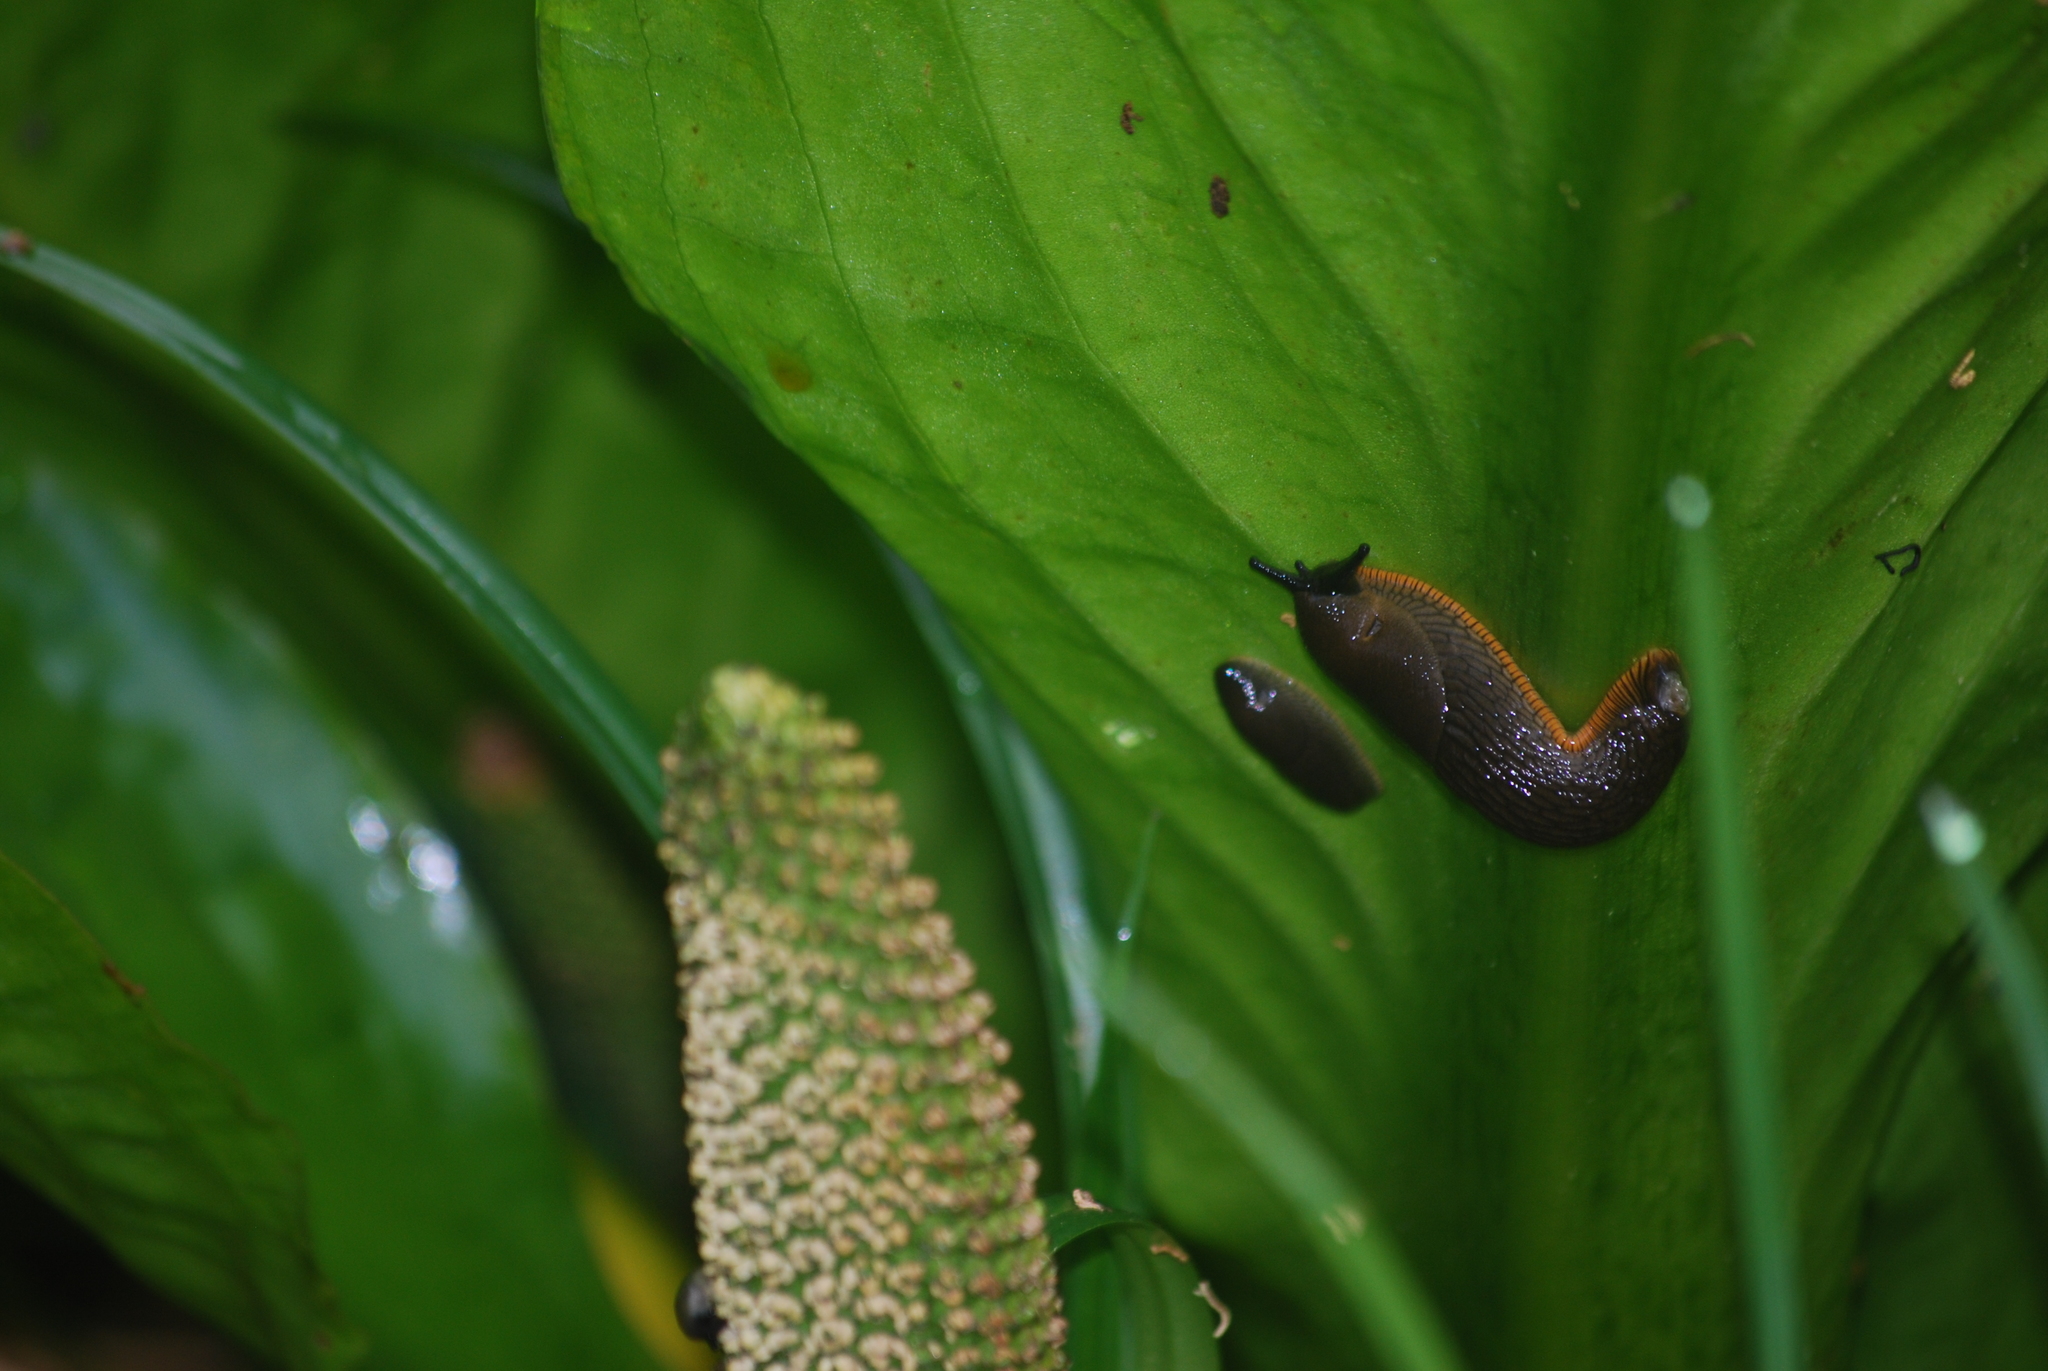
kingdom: Animalia
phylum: Mollusca
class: Gastropoda
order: Stylommatophora
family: Arionidae
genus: Arion
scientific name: Arion rufus
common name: Chocolate arion
